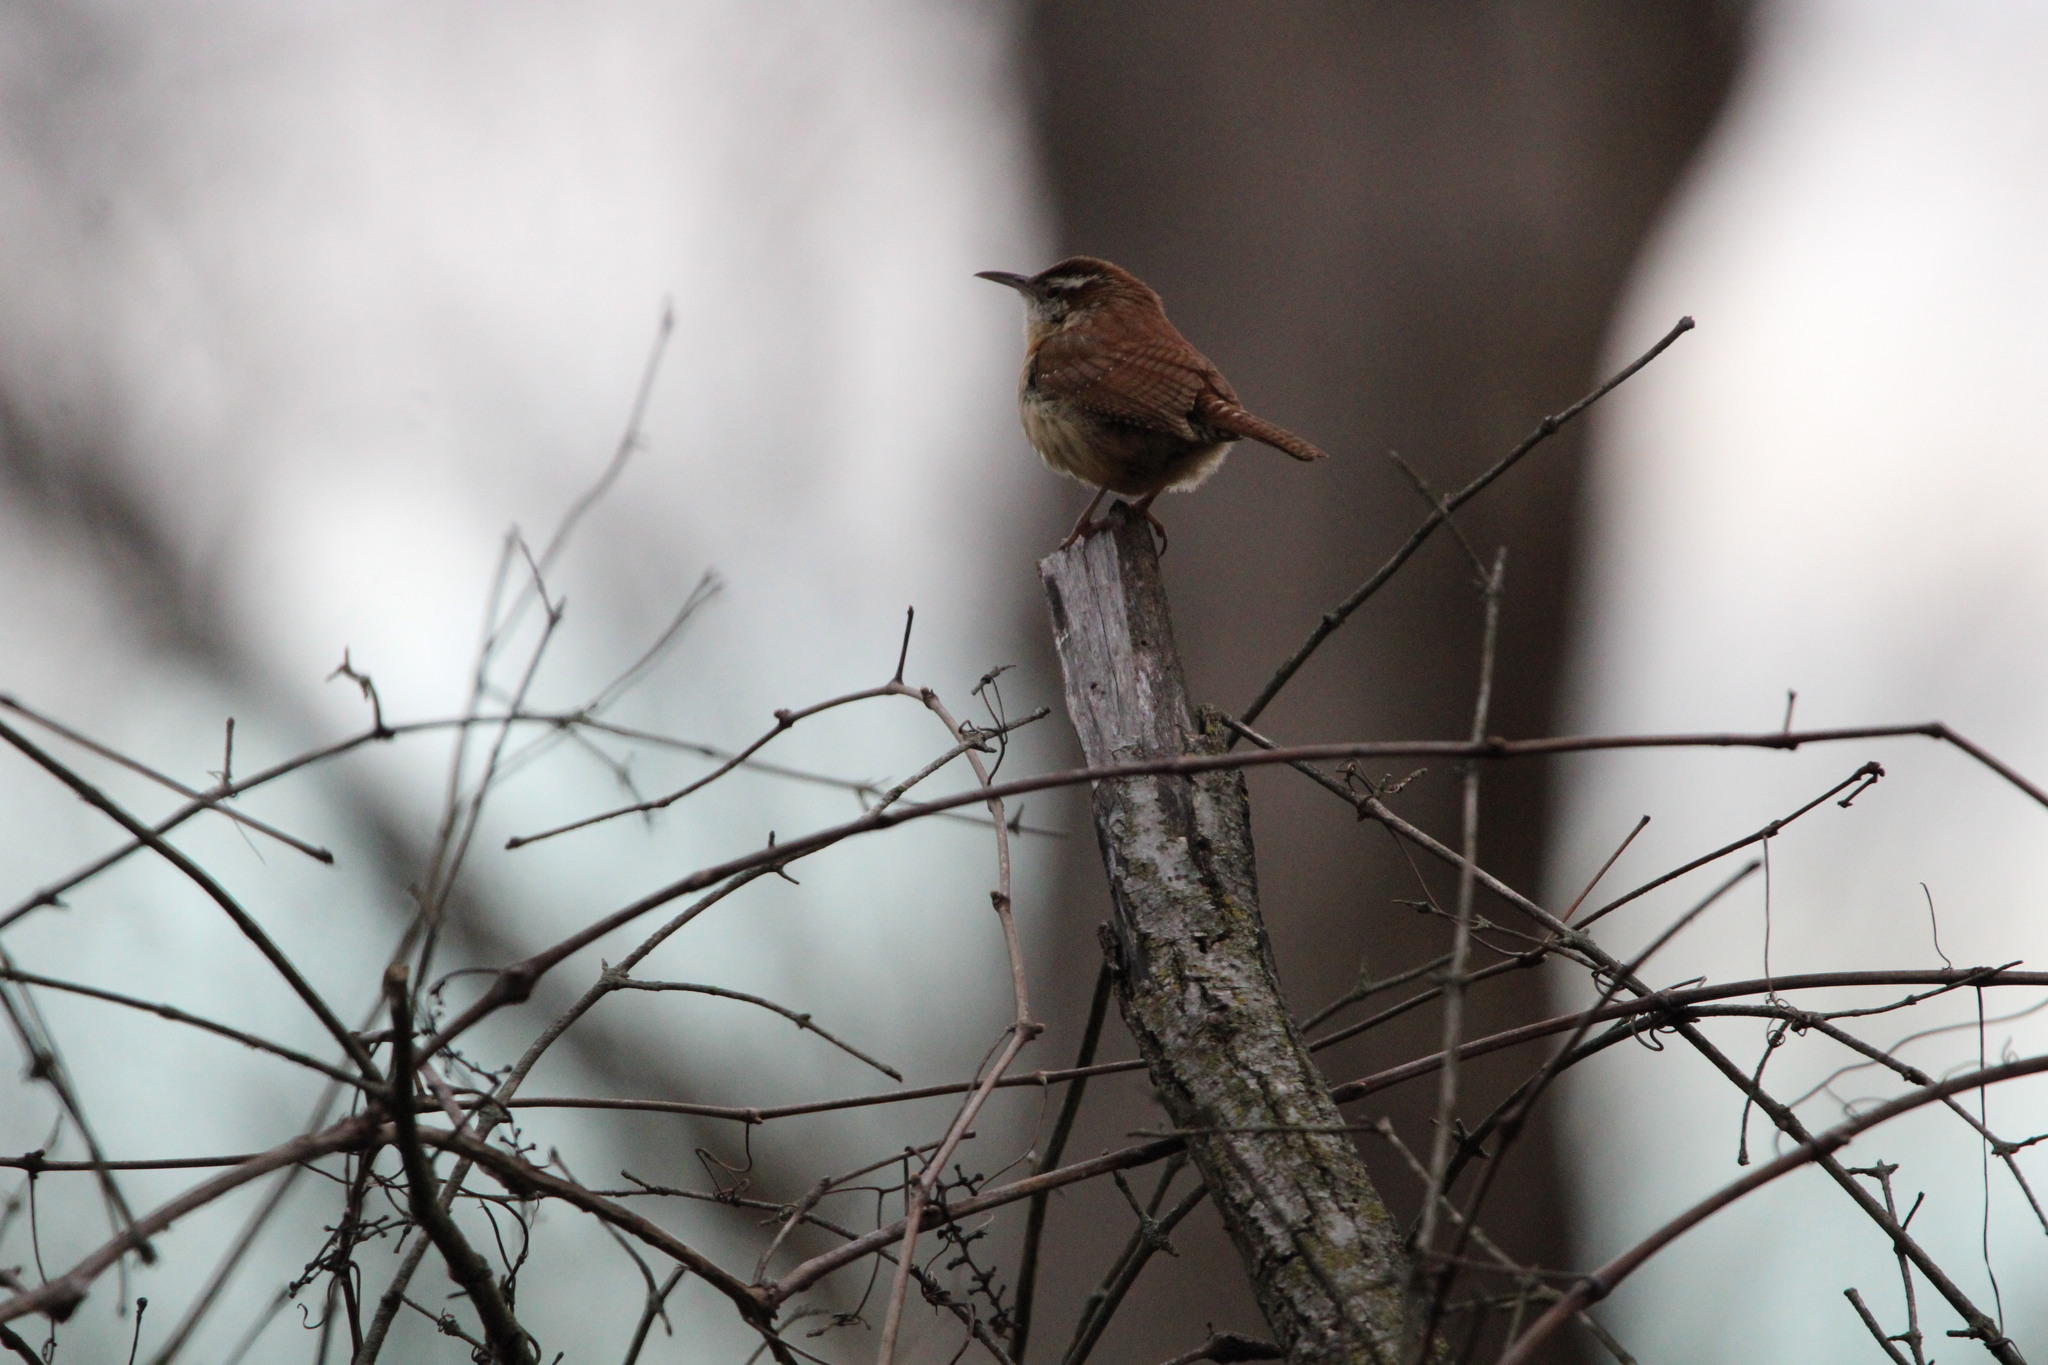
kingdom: Animalia
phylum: Chordata
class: Aves
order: Passeriformes
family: Troglodytidae
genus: Thryothorus
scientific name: Thryothorus ludovicianus
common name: Carolina wren
